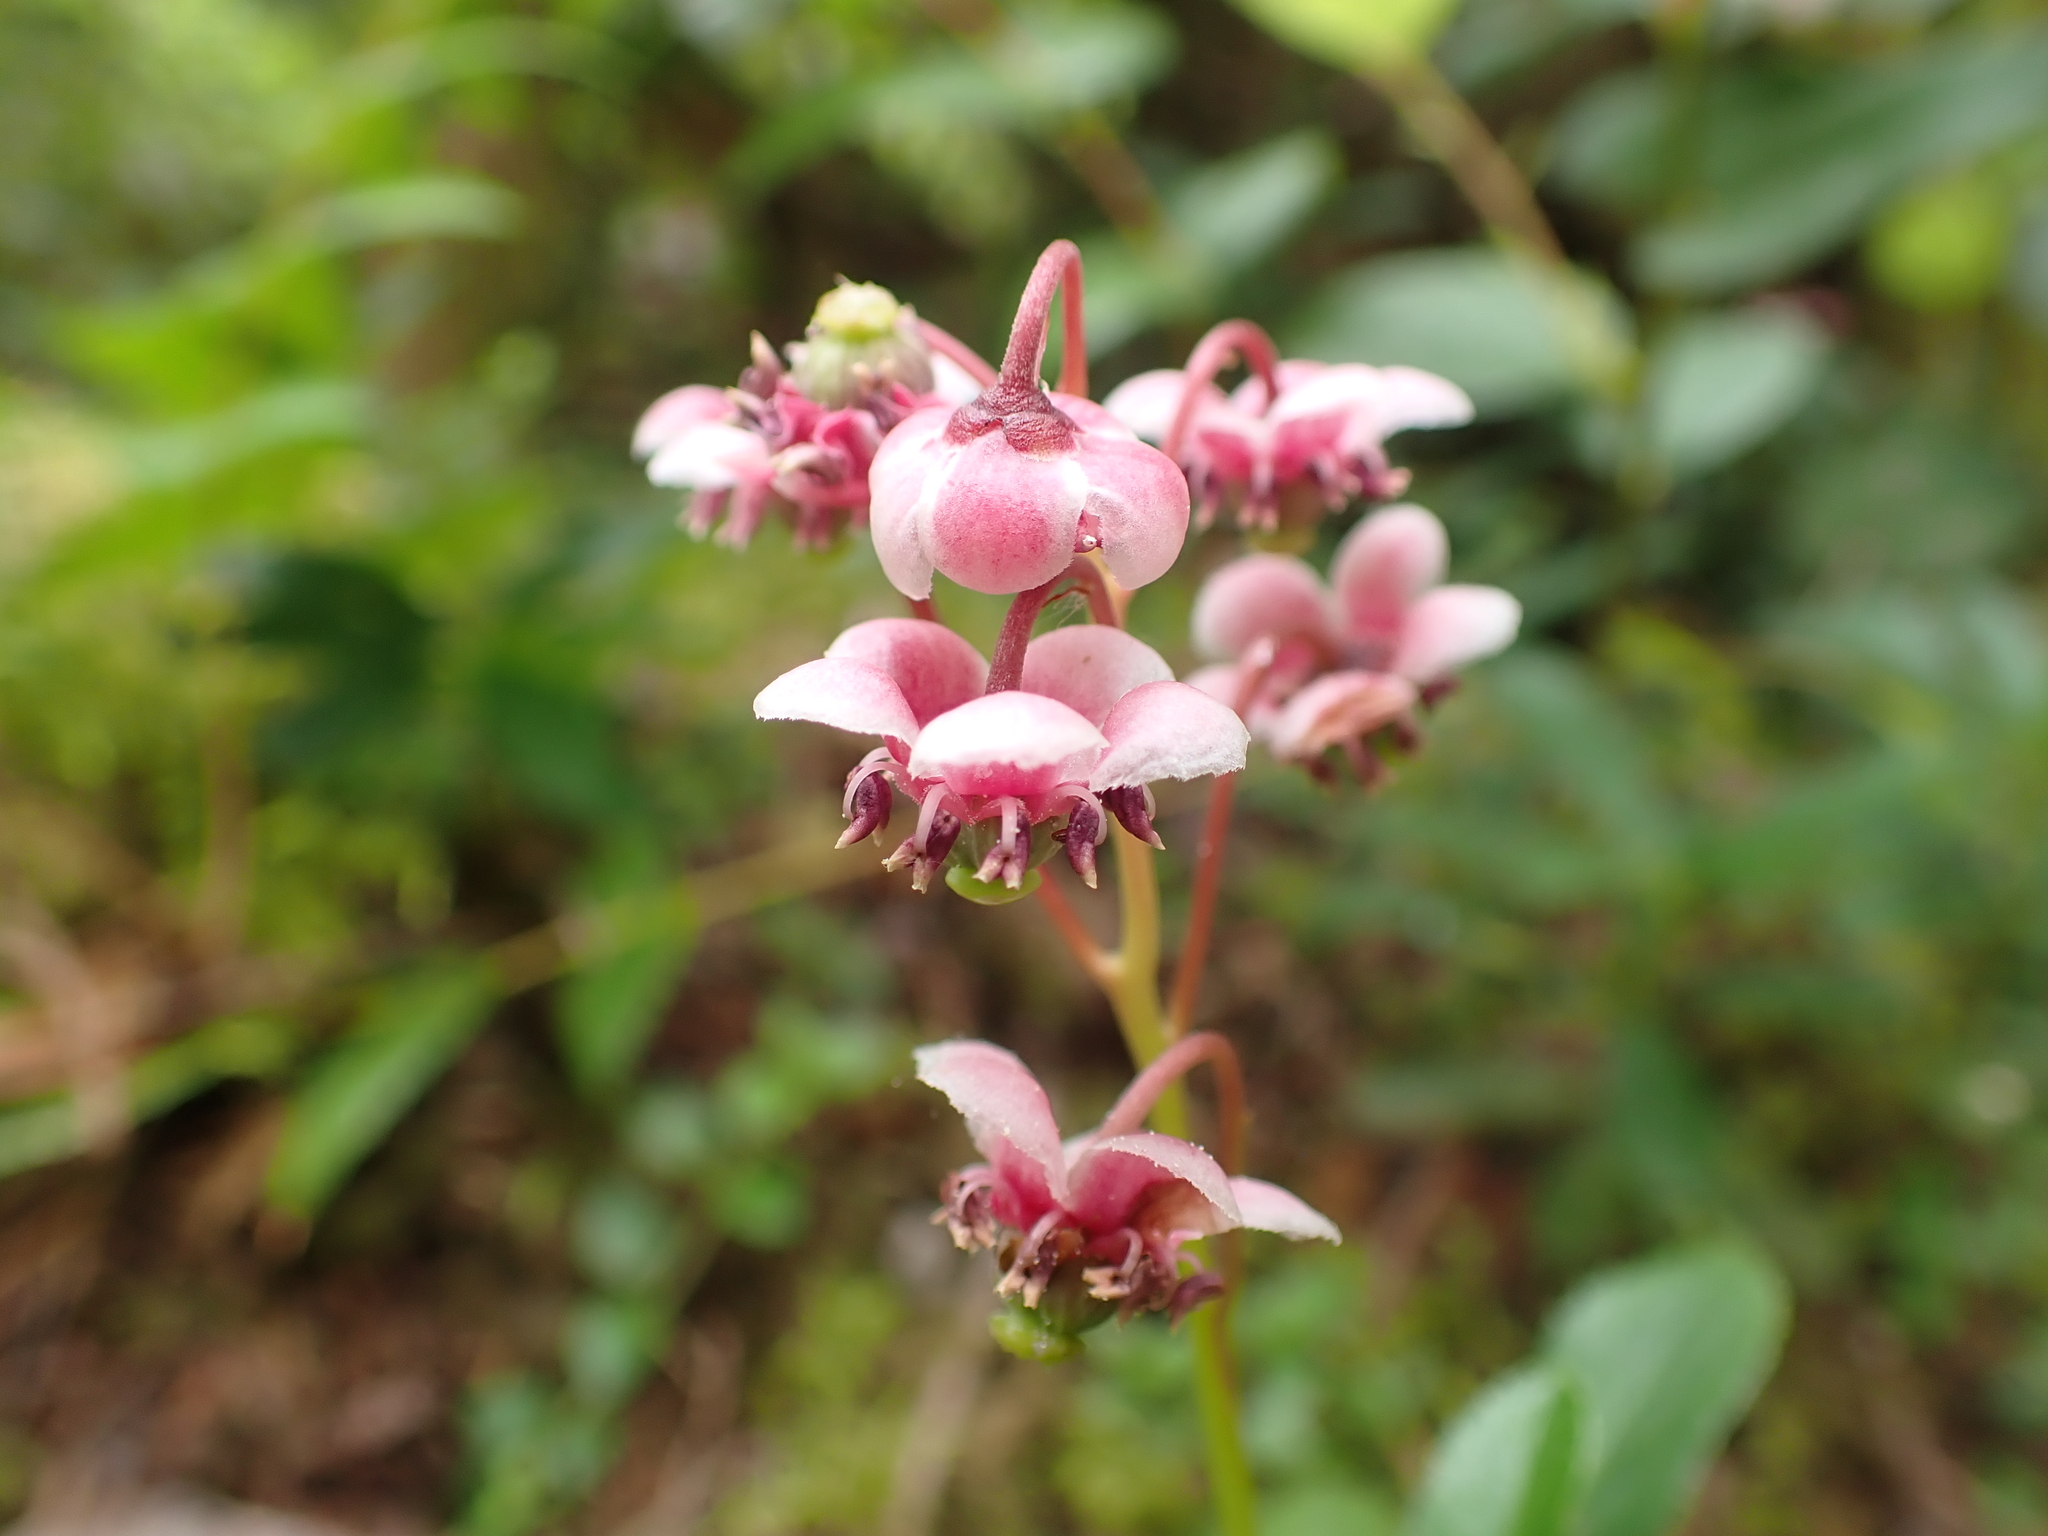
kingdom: Plantae
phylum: Tracheophyta
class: Magnoliopsida
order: Ericales
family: Ericaceae
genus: Chimaphila
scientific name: Chimaphila umbellata
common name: Pipsissewa
